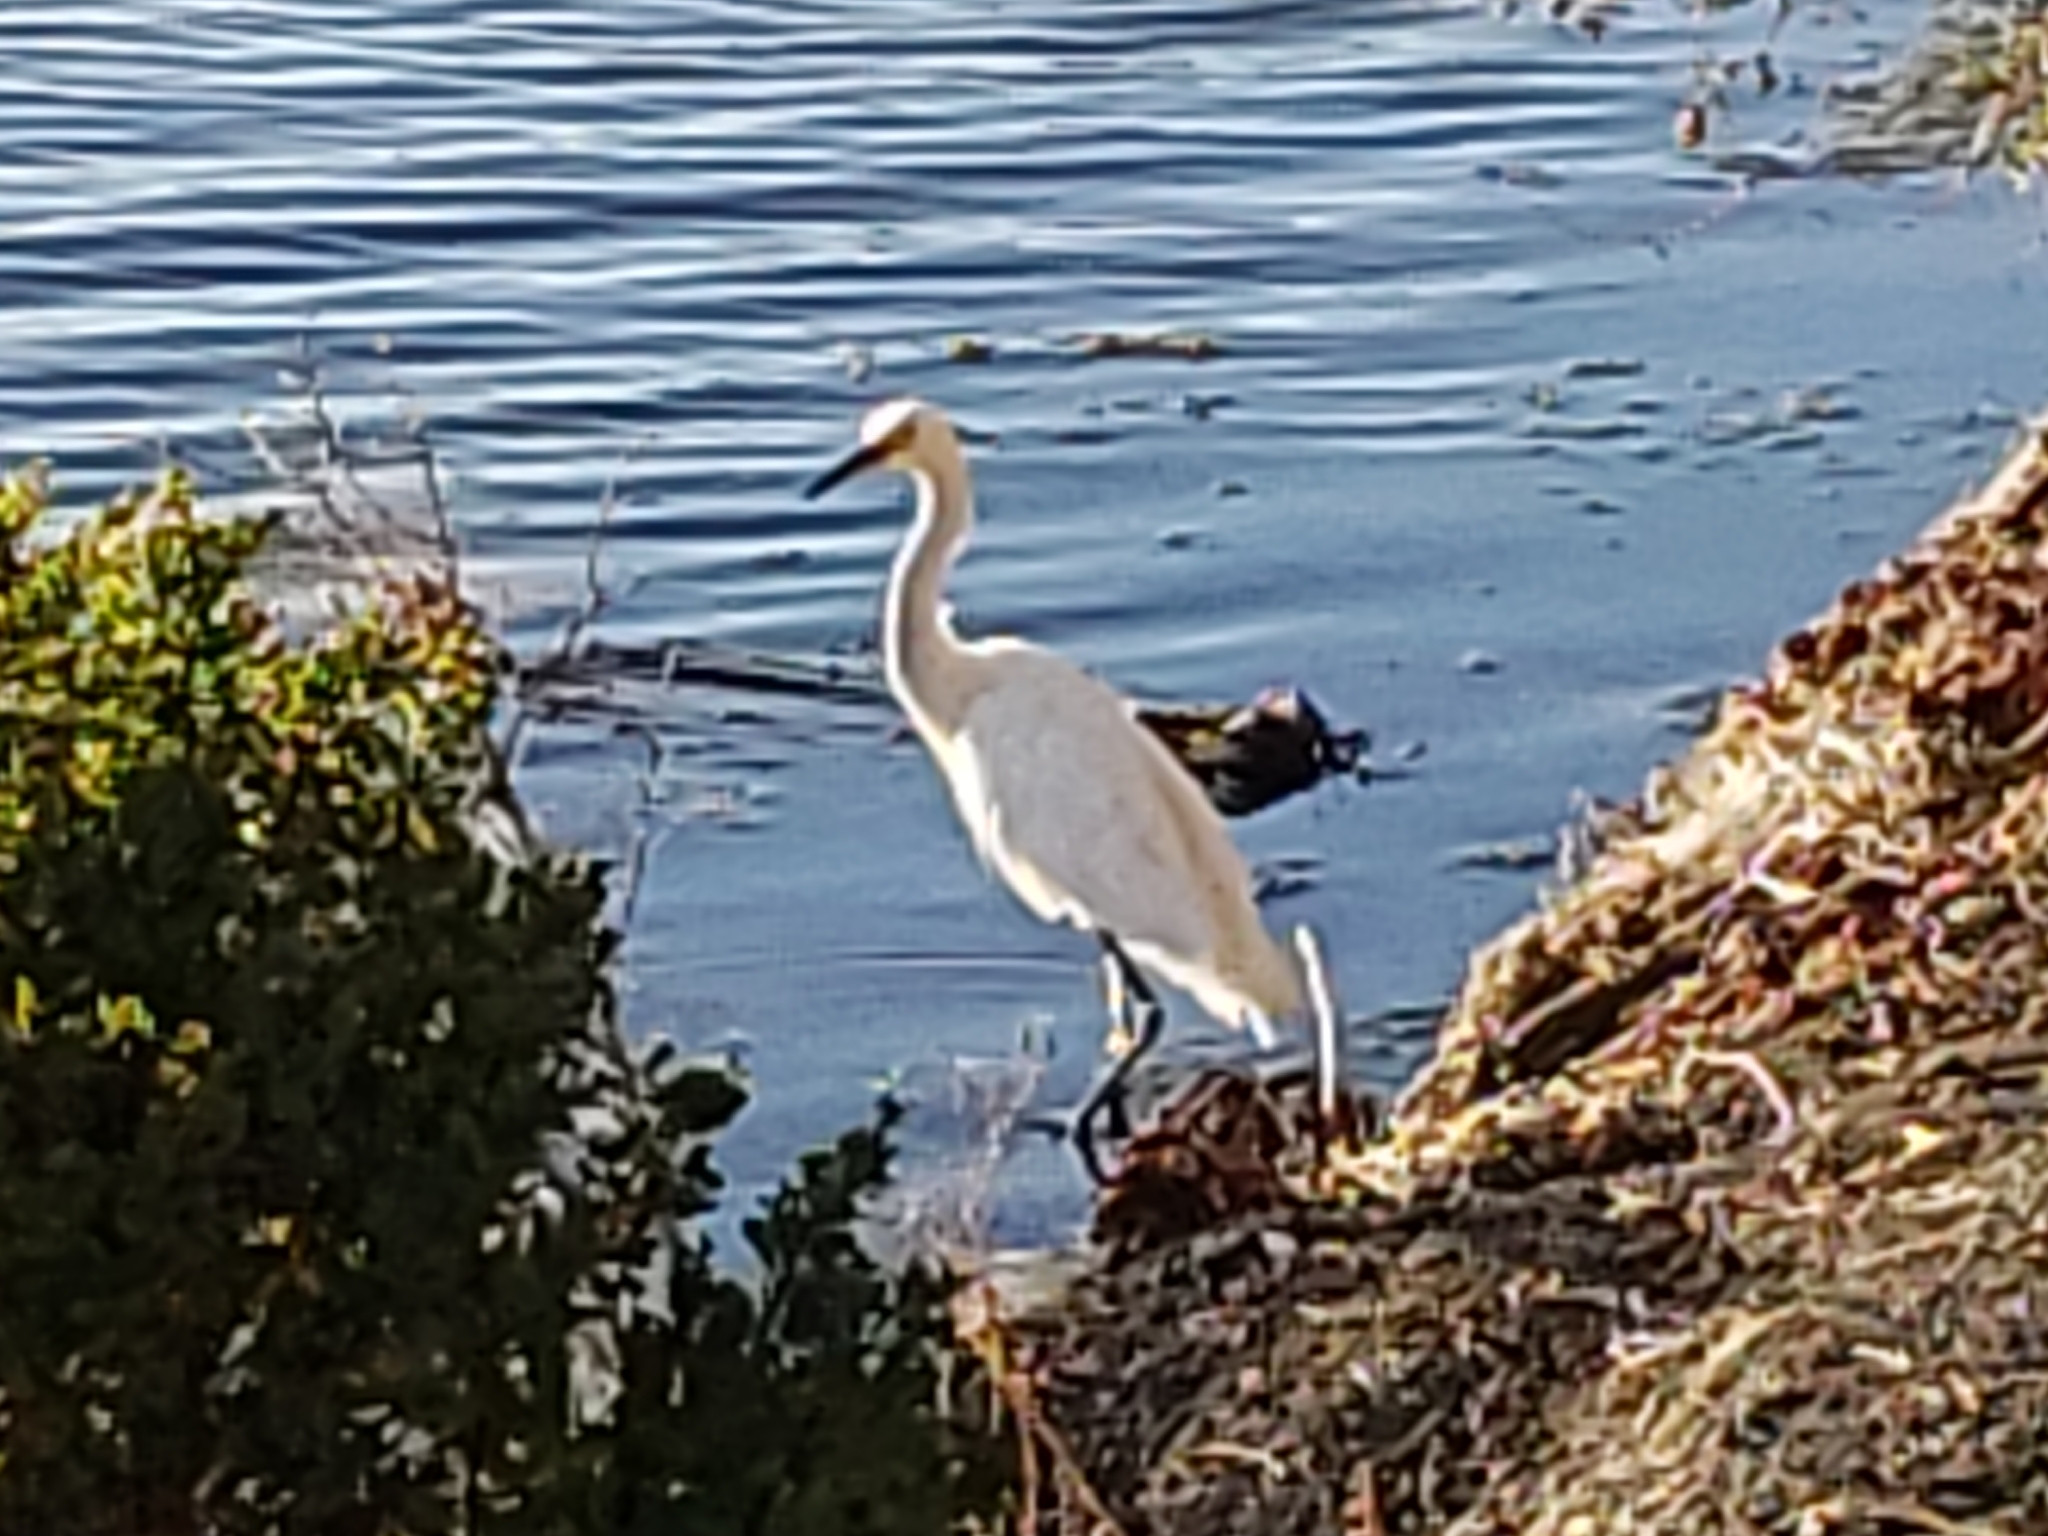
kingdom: Animalia
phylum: Chordata
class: Aves
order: Pelecaniformes
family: Ardeidae
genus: Egretta
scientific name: Egretta thula
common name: Snowy egret
